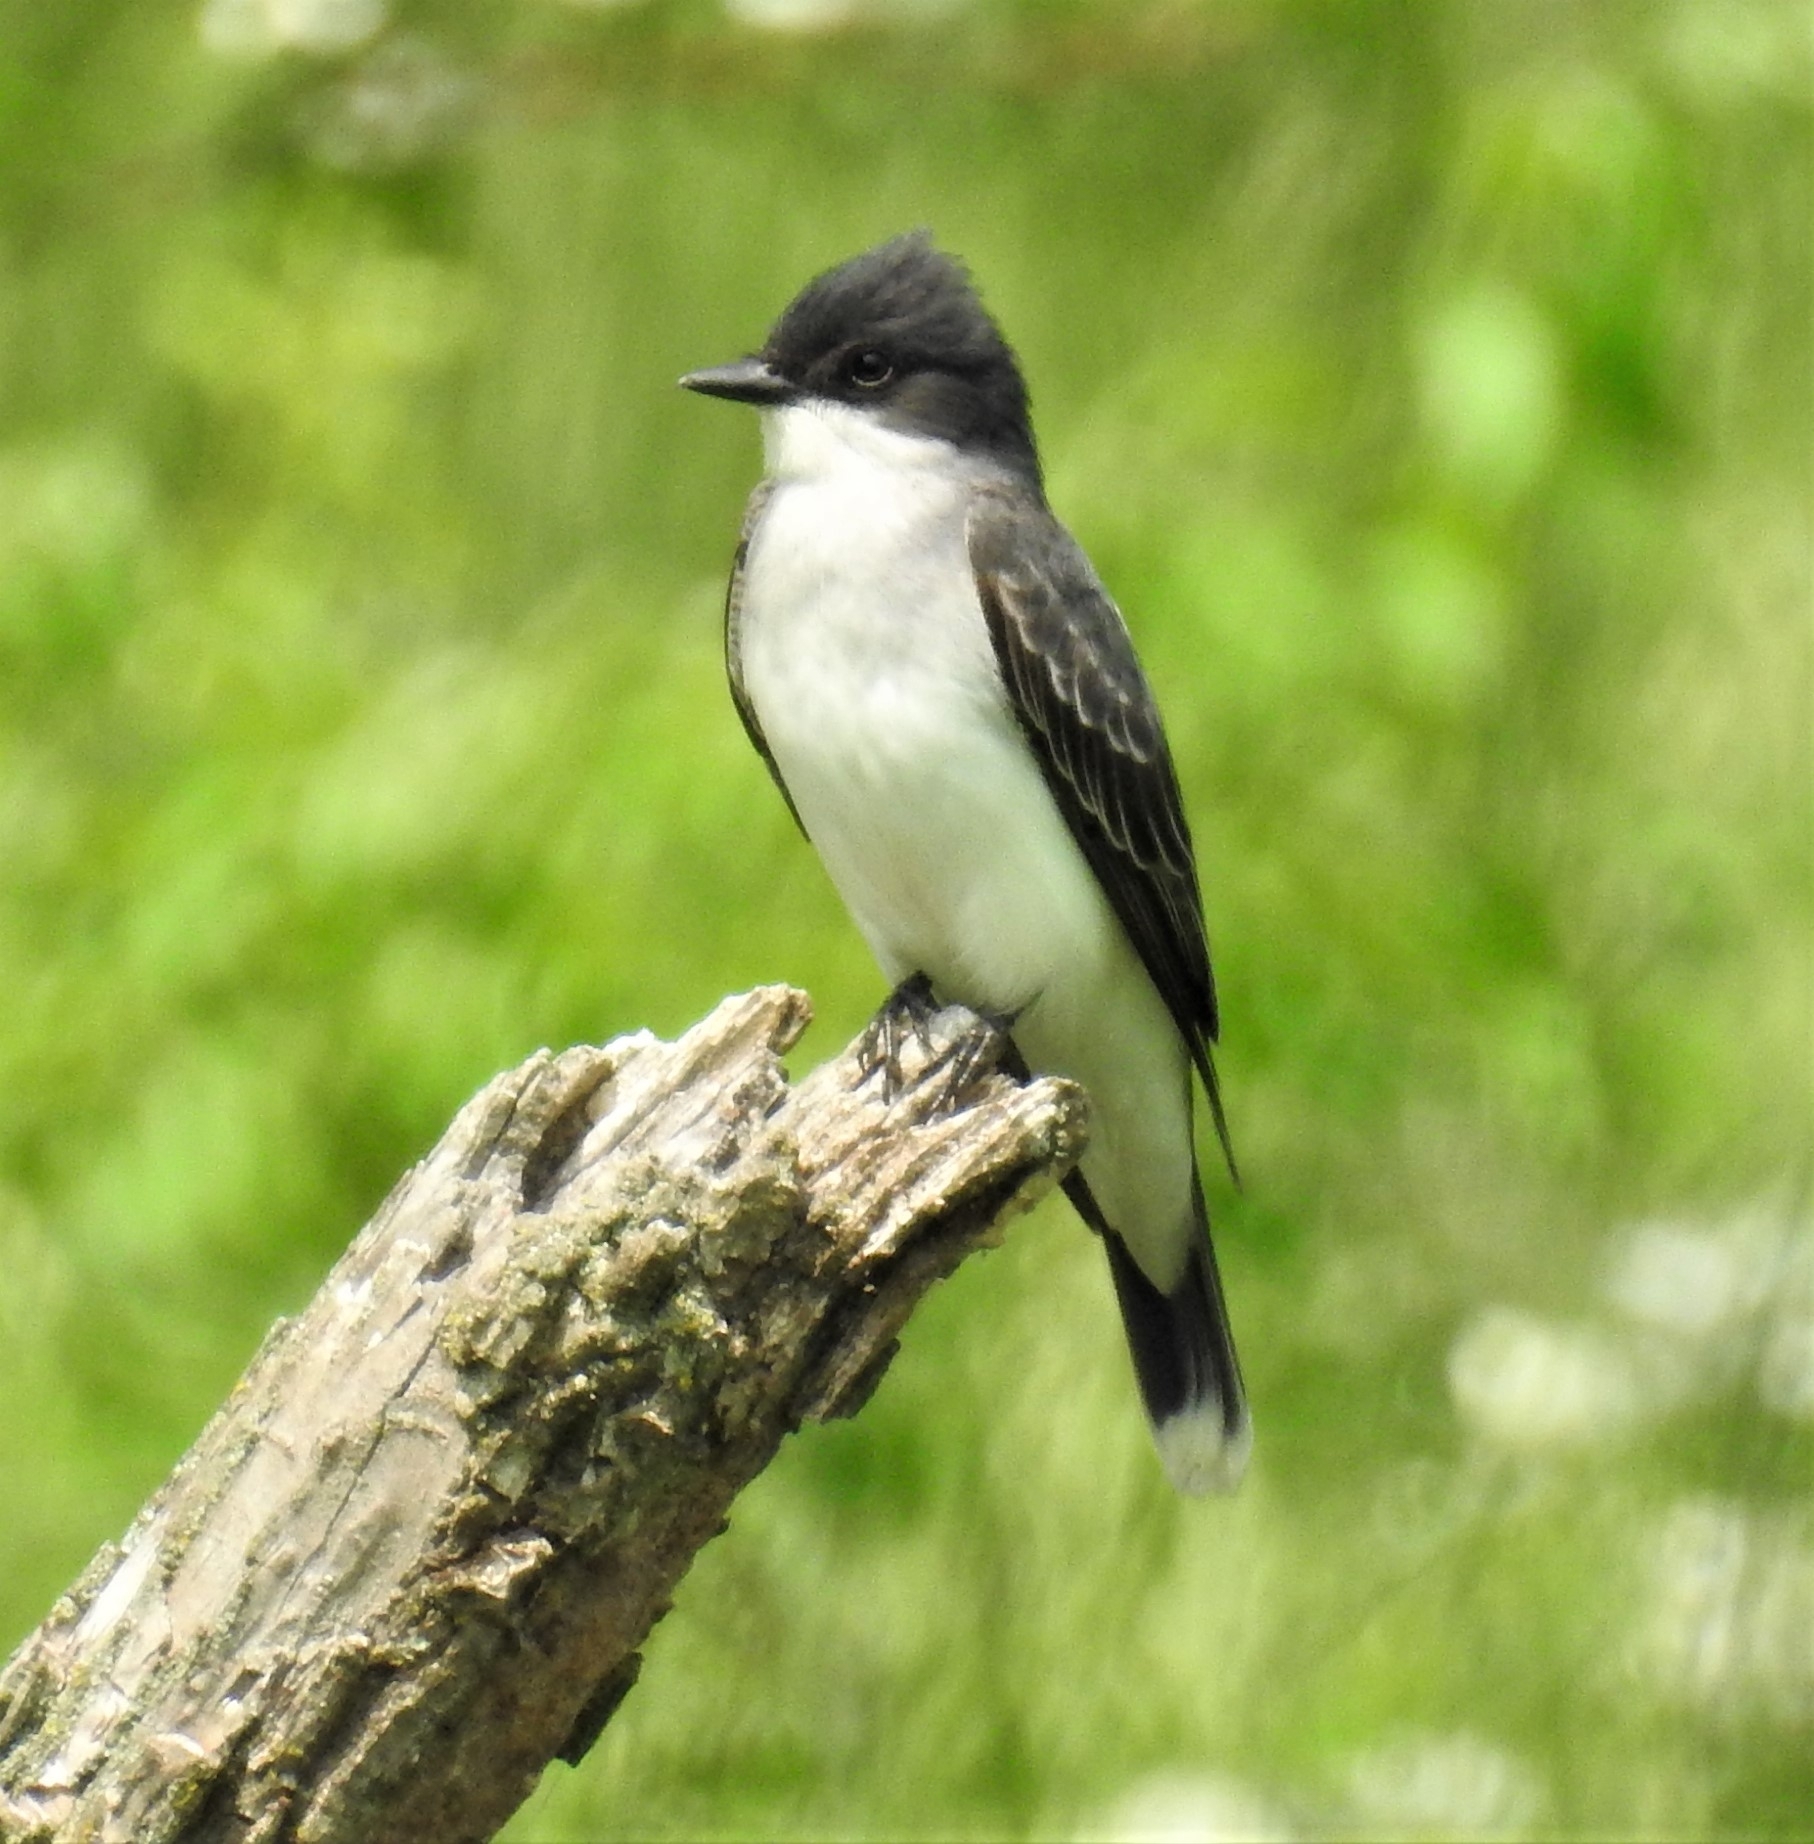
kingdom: Animalia
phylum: Chordata
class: Aves
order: Passeriformes
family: Tyrannidae
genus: Tyrannus
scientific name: Tyrannus tyrannus
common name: Eastern kingbird
